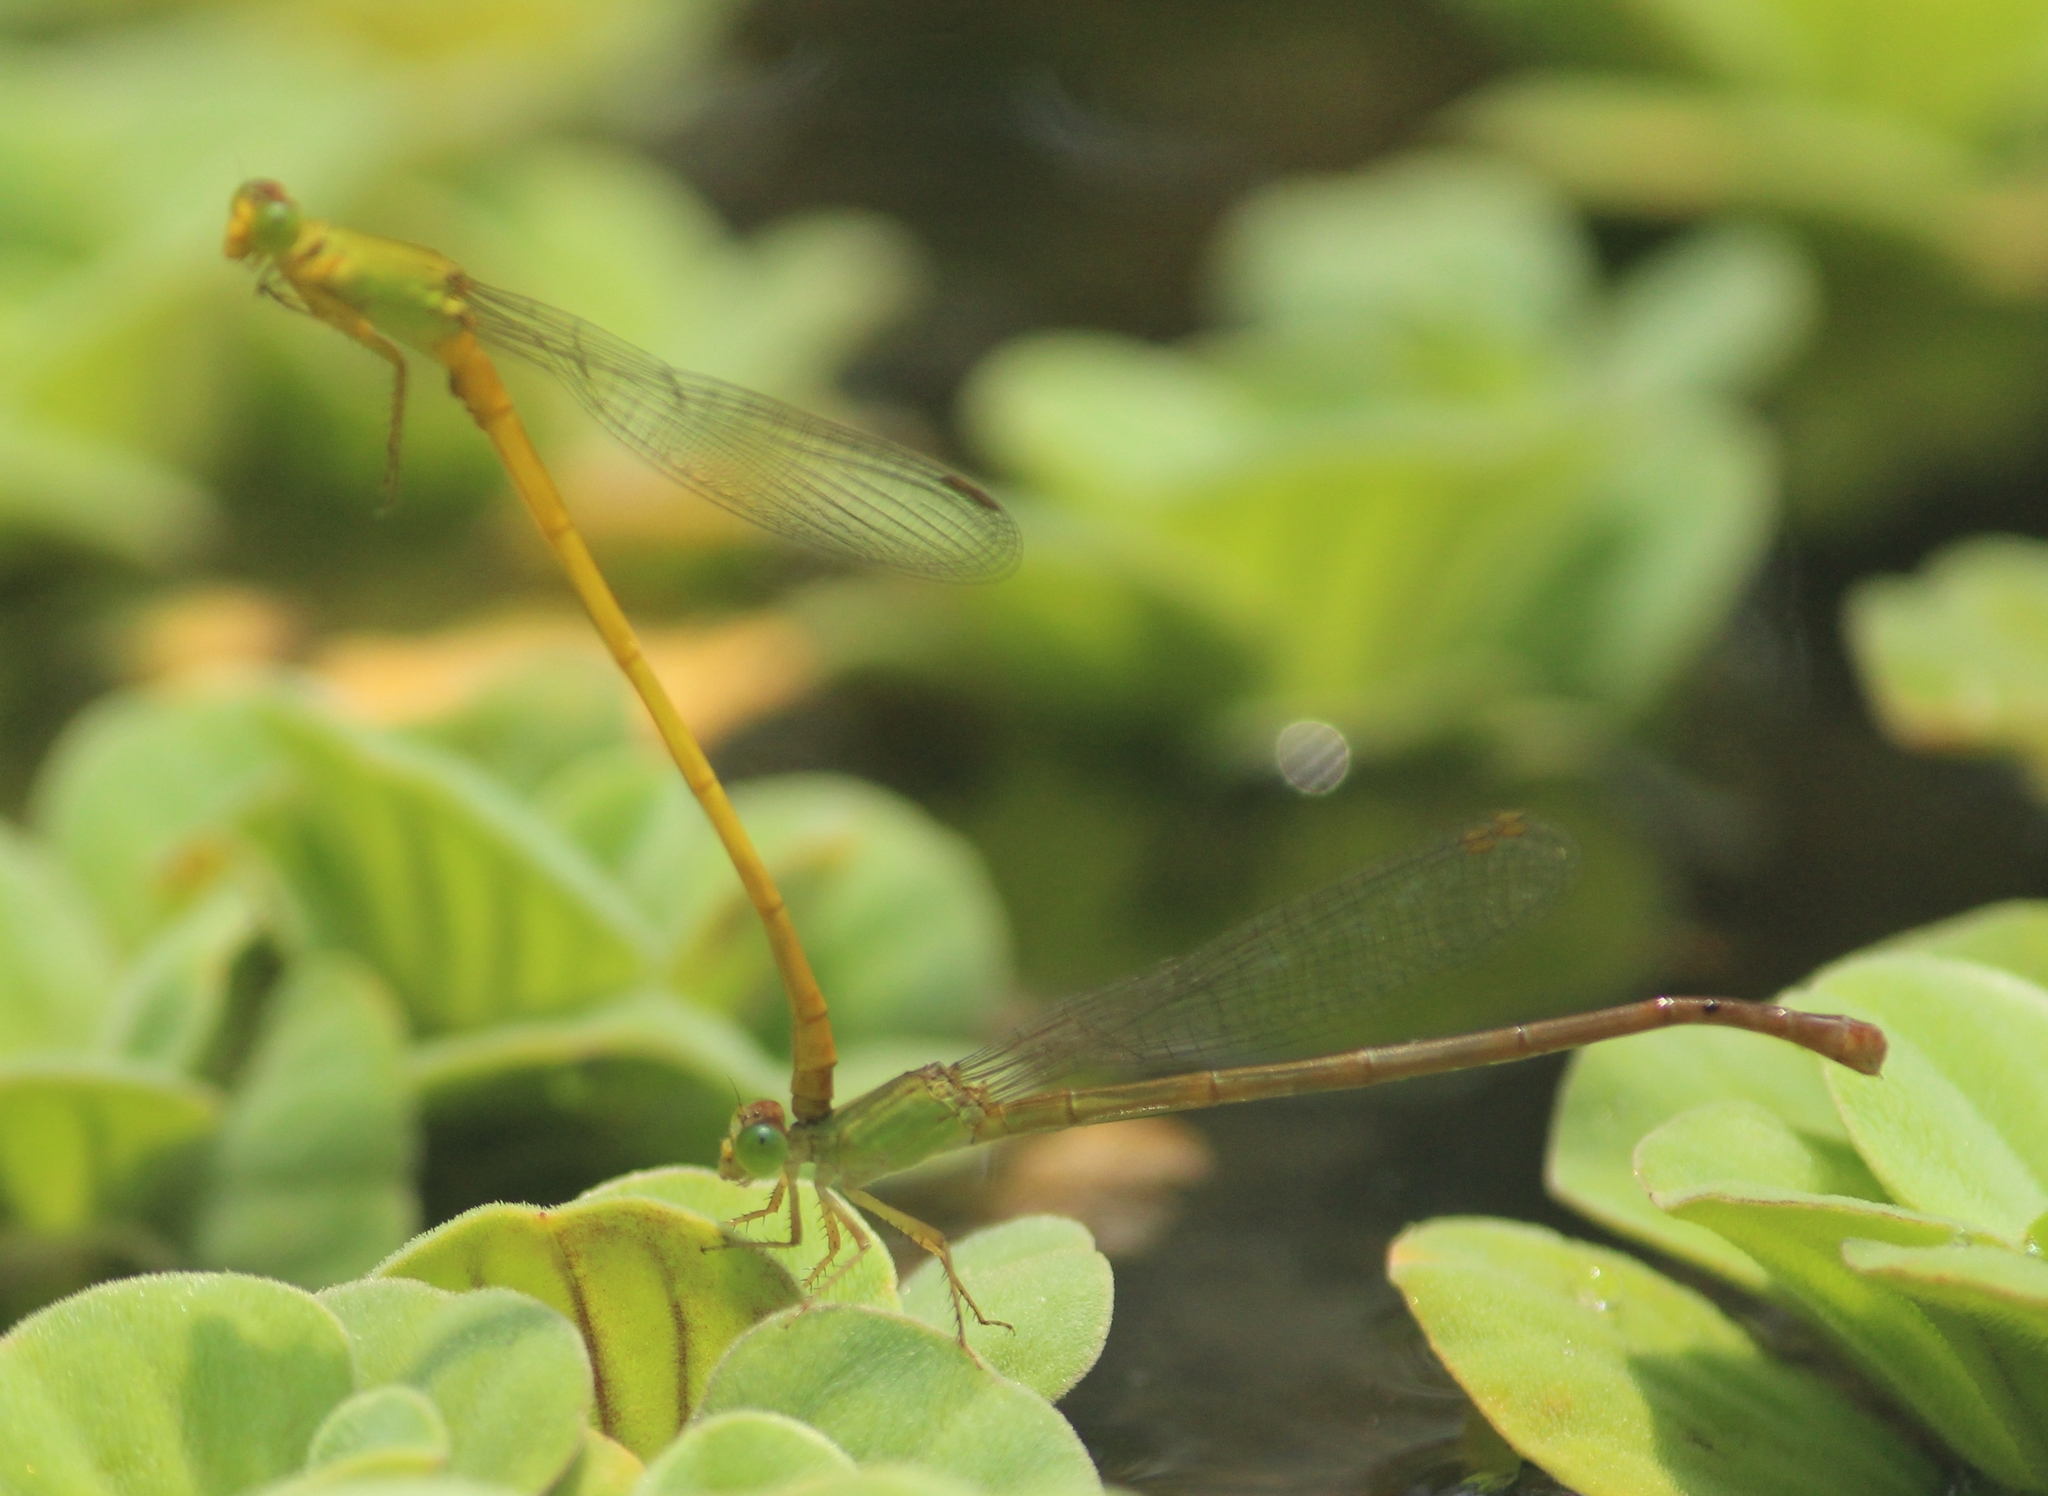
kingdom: Animalia
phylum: Arthropoda
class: Insecta
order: Odonata
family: Coenagrionidae
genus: Ceriagrion
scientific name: Ceriagrion coromandelianum
